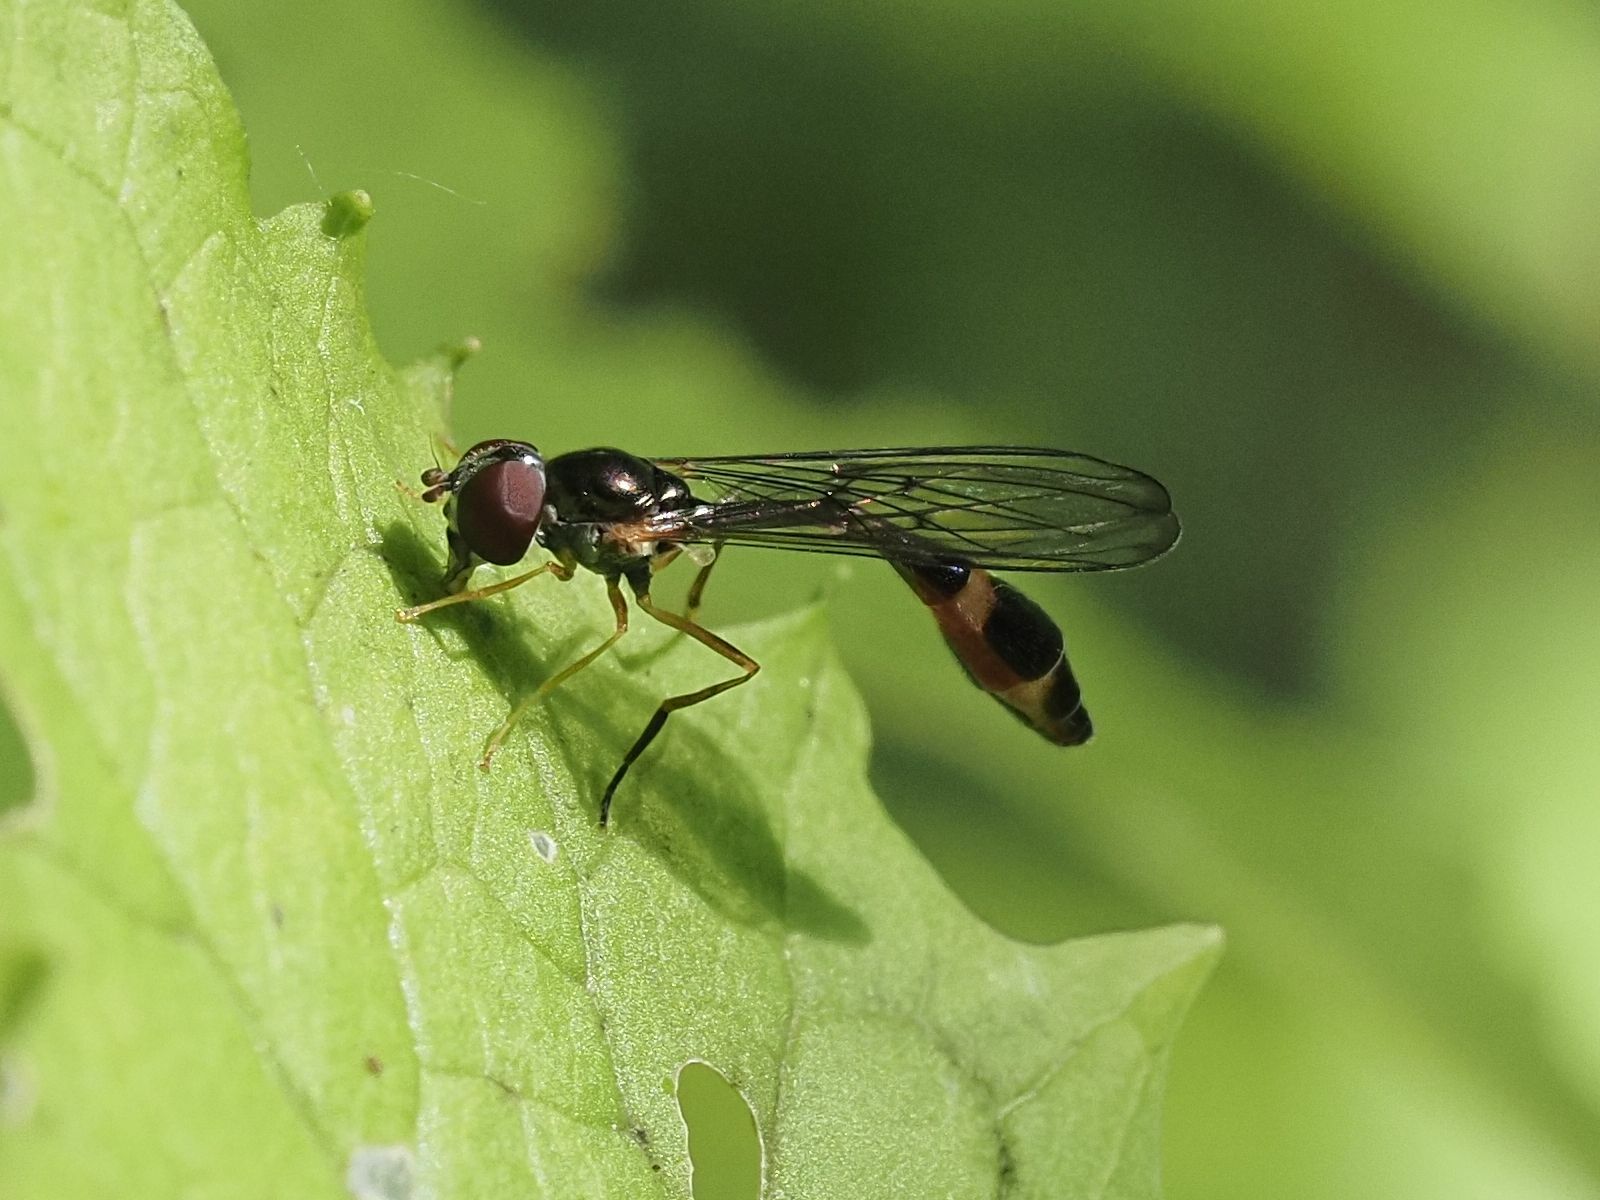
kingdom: Animalia
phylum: Arthropoda
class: Insecta
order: Diptera
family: Syrphidae
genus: Baccha
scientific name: Baccha elongata
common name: Common dainty
